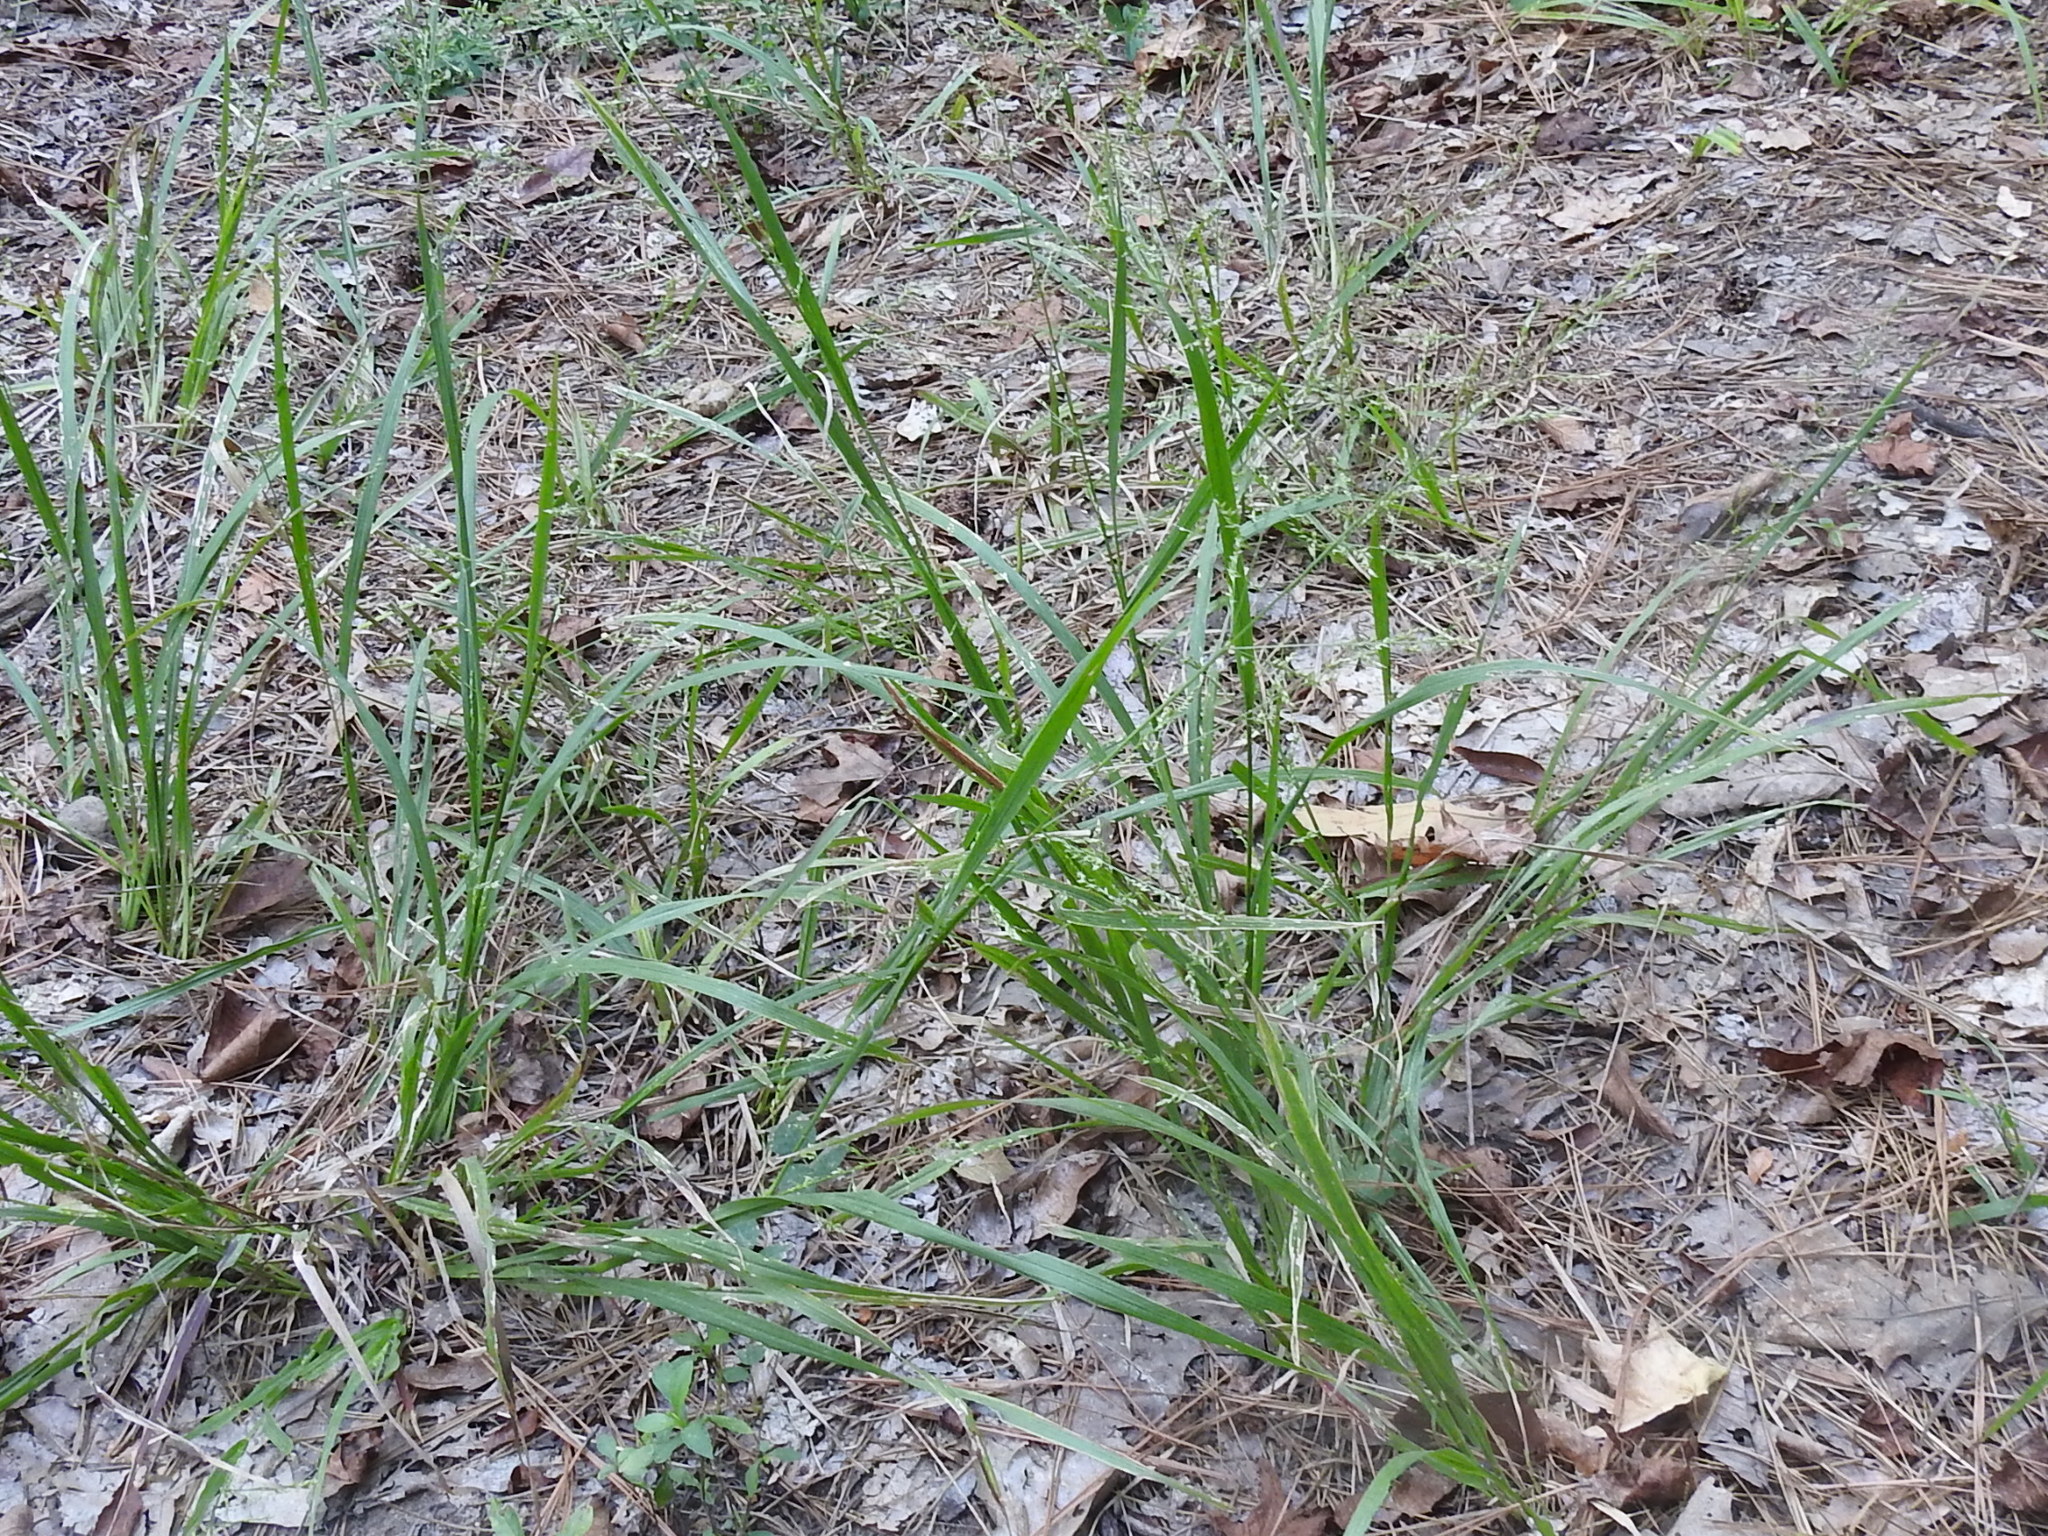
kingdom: Plantae
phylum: Tracheophyta
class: Liliopsida
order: Poales
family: Poaceae
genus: Coleataenia
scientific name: Coleataenia anceps
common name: Beaked panic grass
